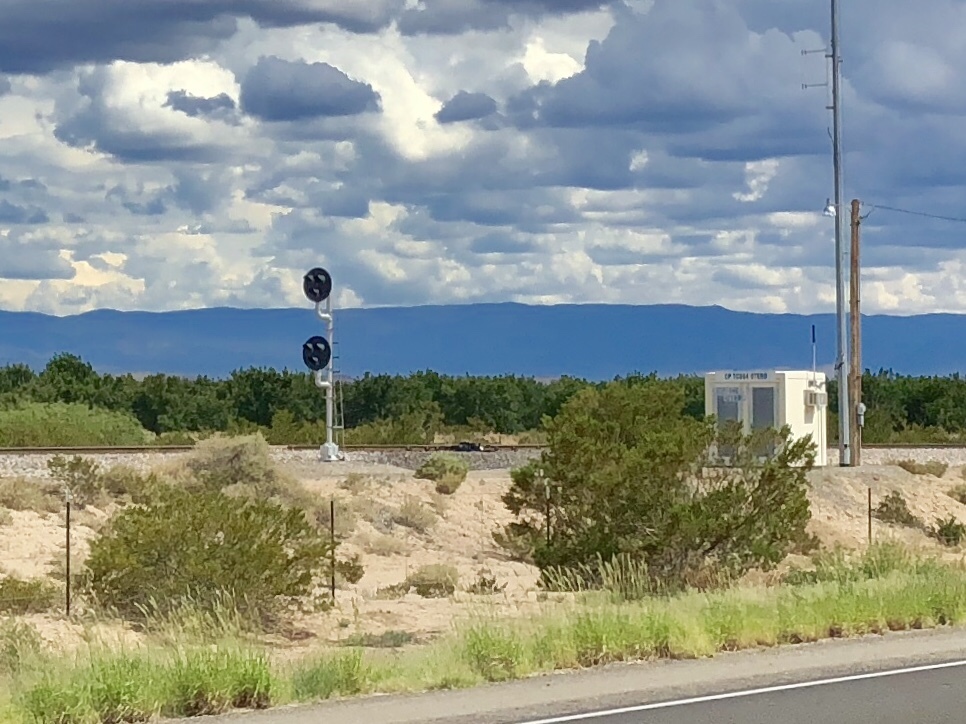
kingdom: Plantae
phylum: Tracheophyta
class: Magnoliopsida
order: Zygophyllales
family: Zygophyllaceae
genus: Larrea
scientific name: Larrea tridentata
